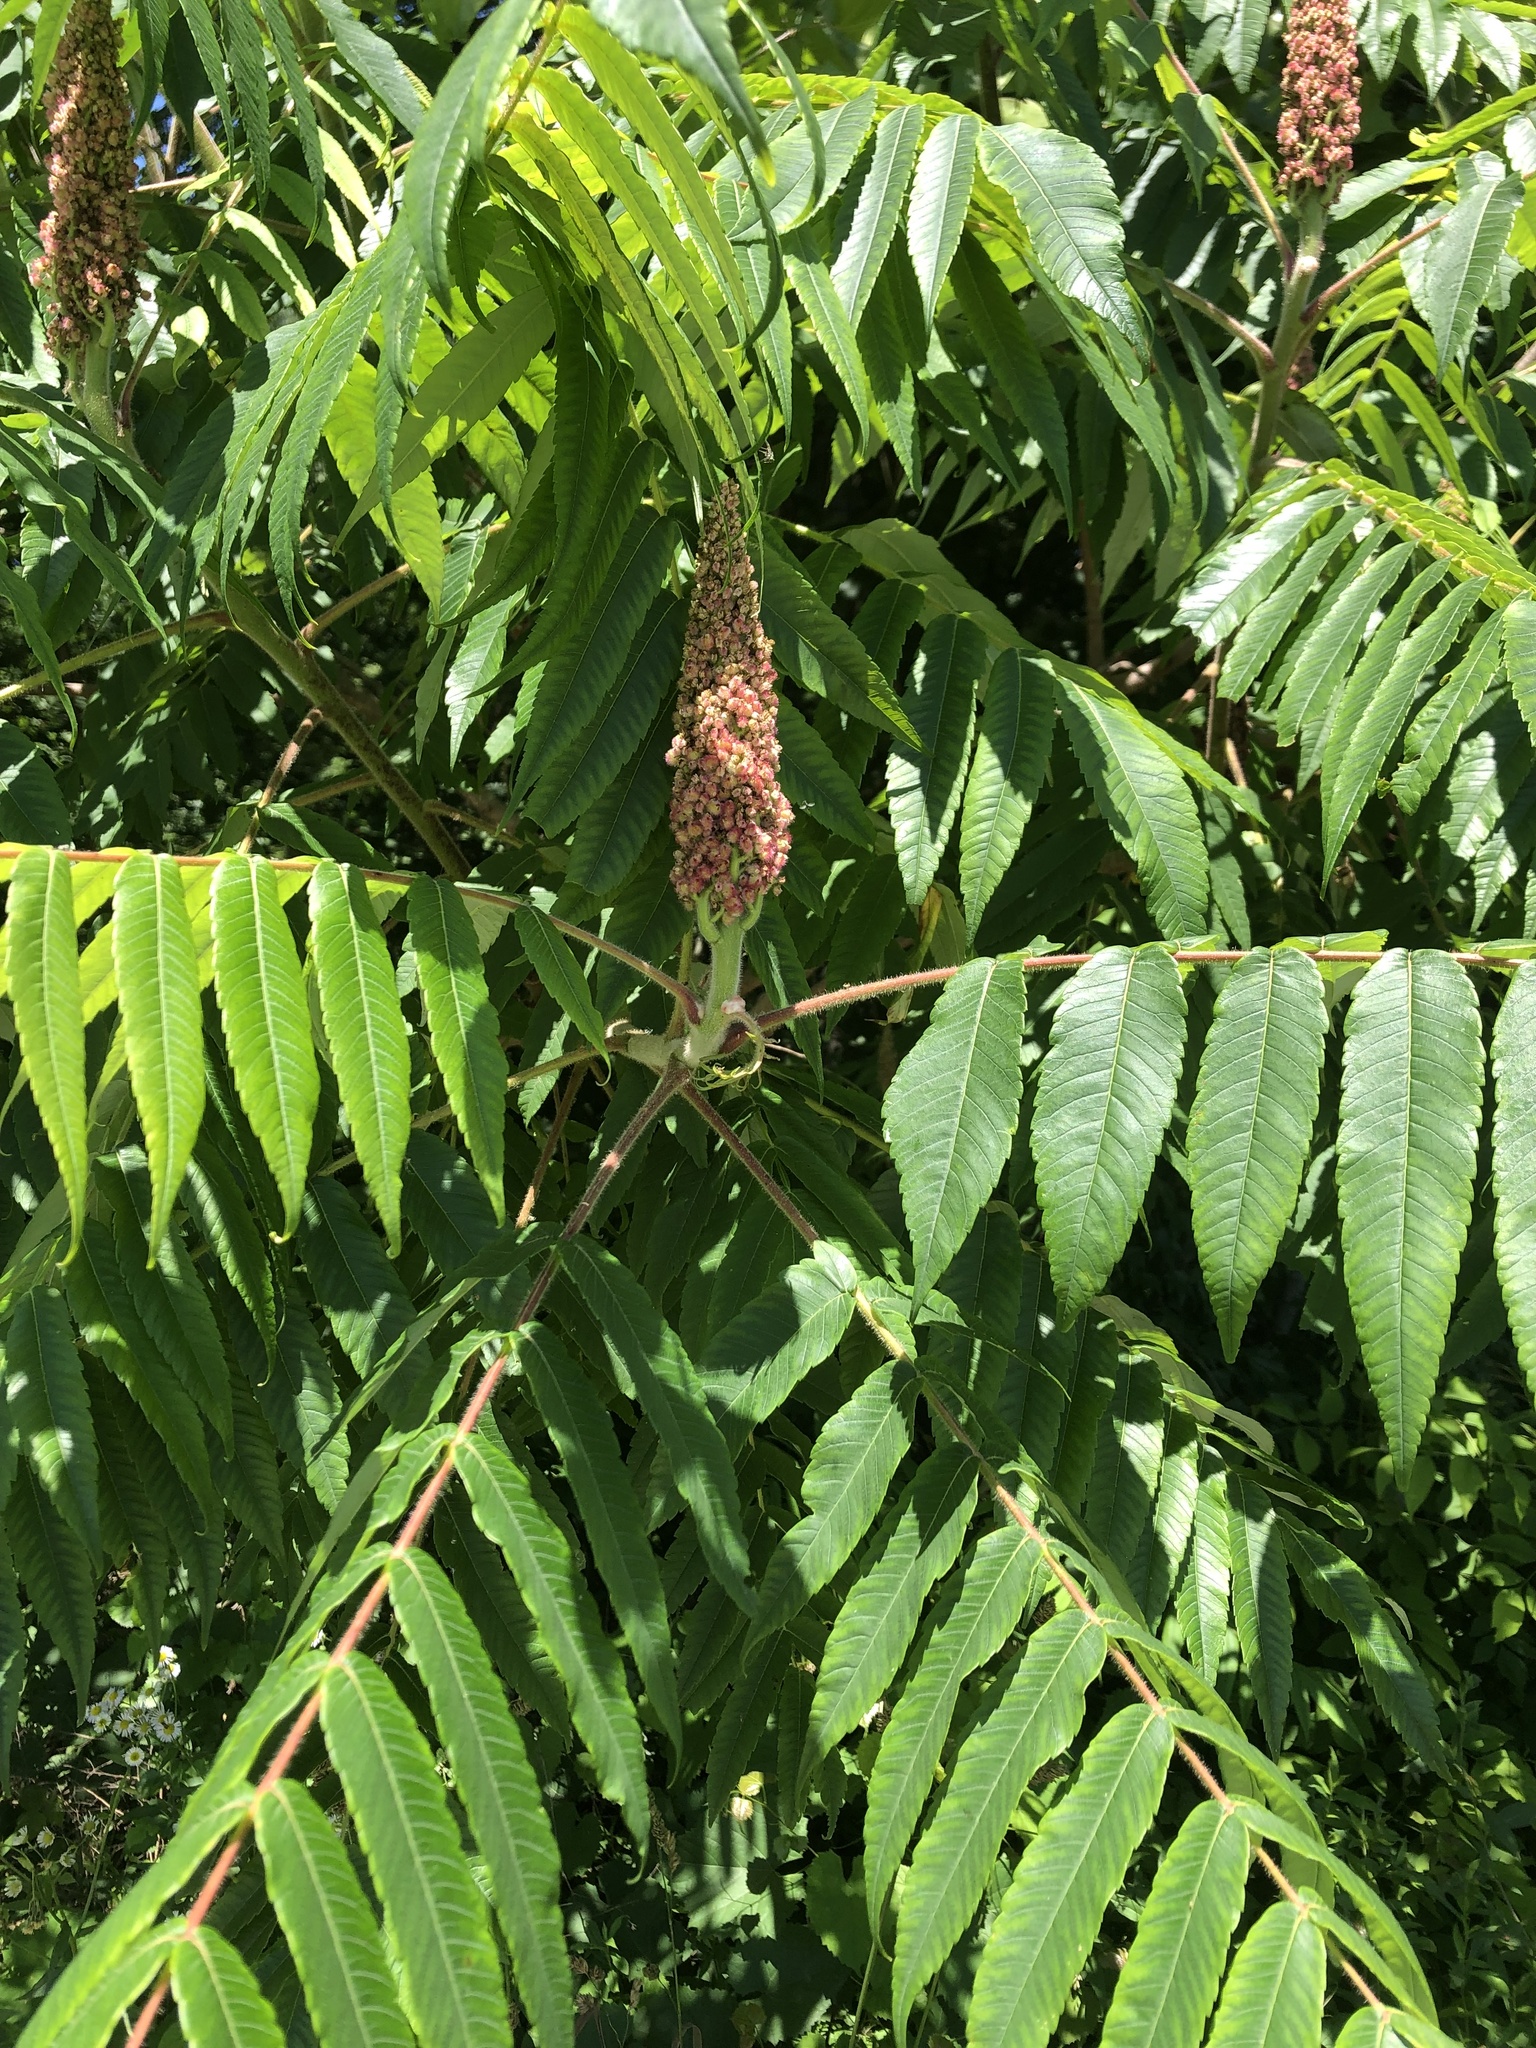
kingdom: Plantae
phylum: Tracheophyta
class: Magnoliopsida
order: Sapindales
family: Anacardiaceae
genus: Rhus
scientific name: Rhus typhina
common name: Staghorn sumac
